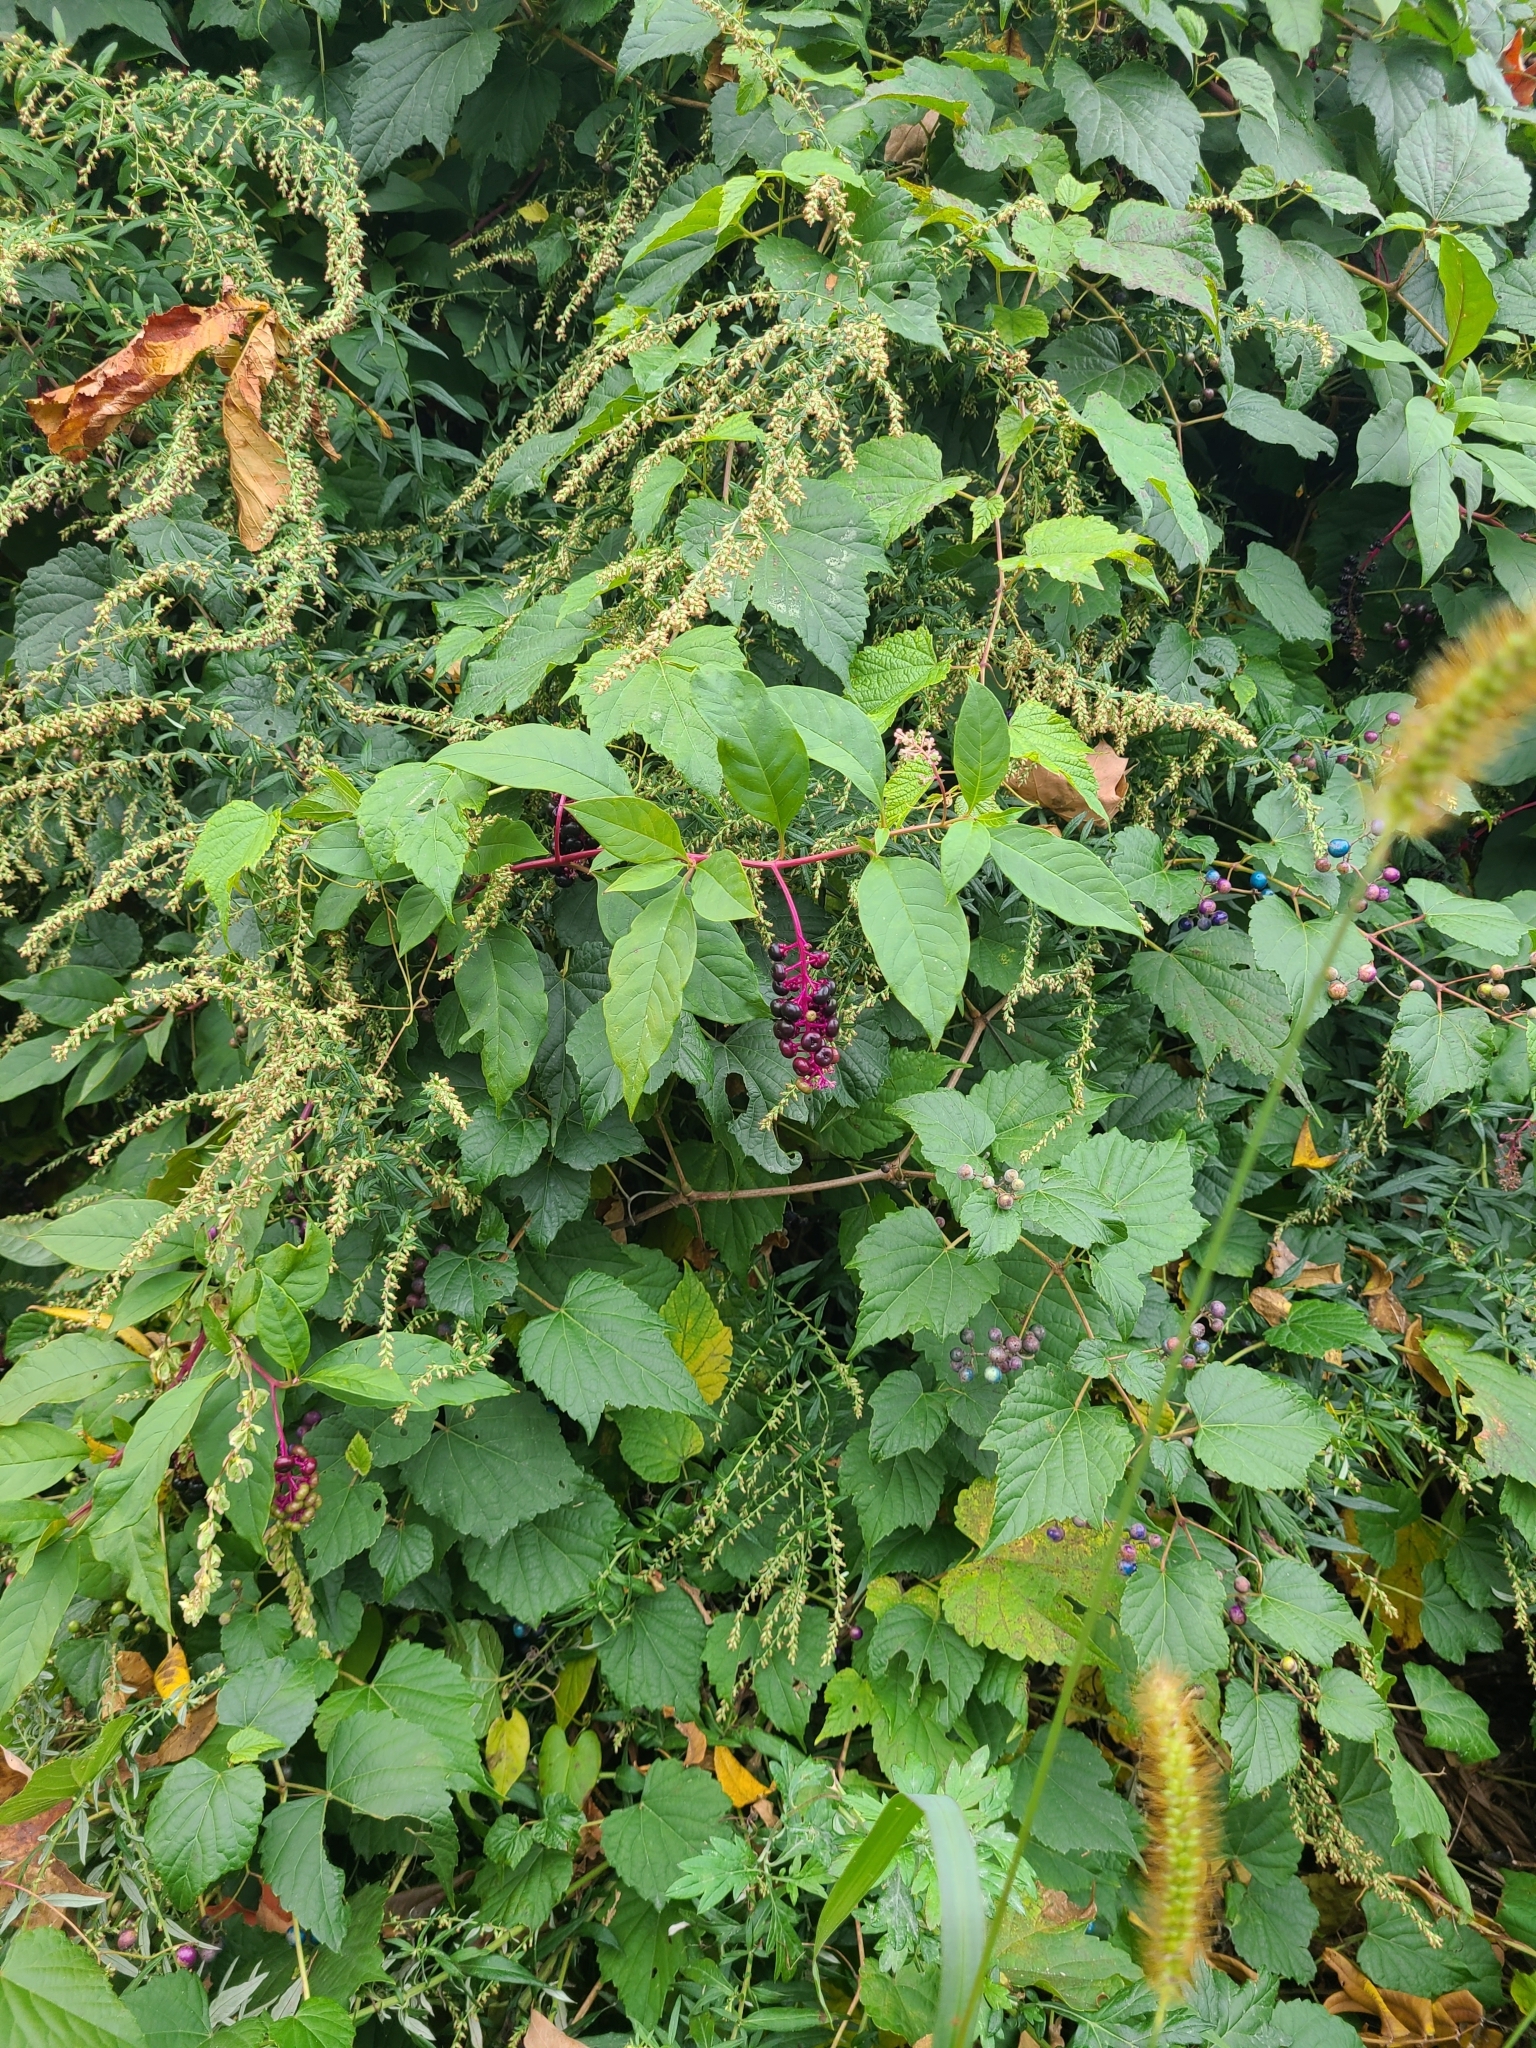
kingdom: Plantae
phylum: Tracheophyta
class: Magnoliopsida
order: Caryophyllales
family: Phytolaccaceae
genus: Phytolacca
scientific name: Phytolacca americana
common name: American pokeweed
